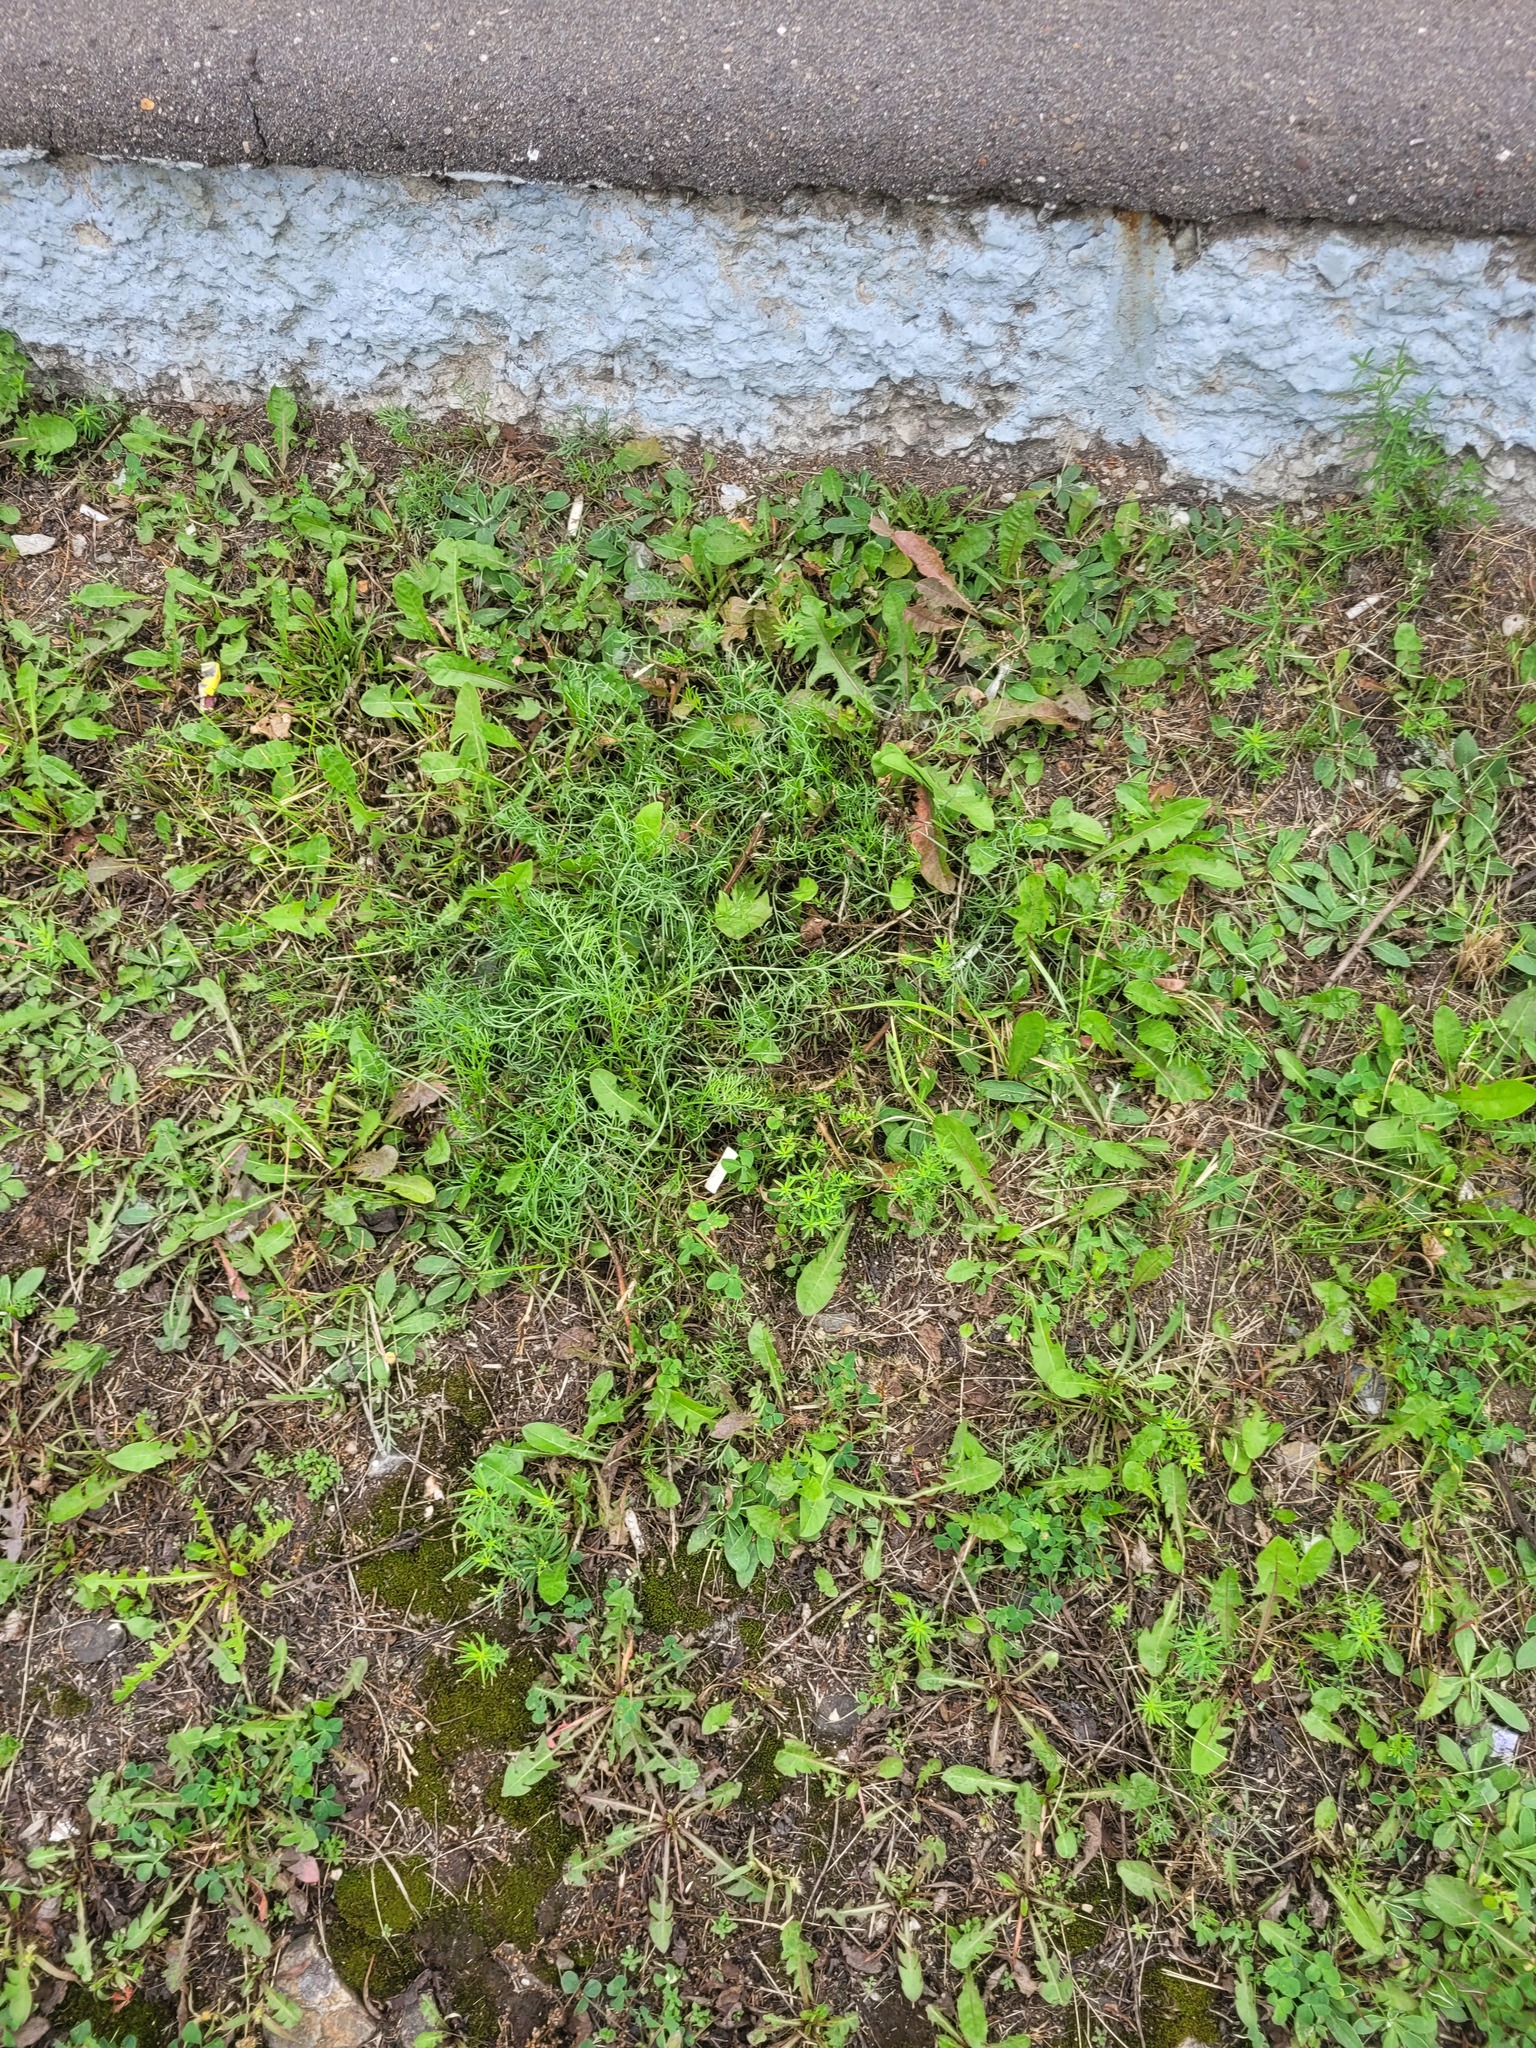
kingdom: Plantae
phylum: Tracheophyta
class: Magnoliopsida
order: Asterales
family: Asteraceae
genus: Artemisia
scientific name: Artemisia campestris
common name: Field wormwood
